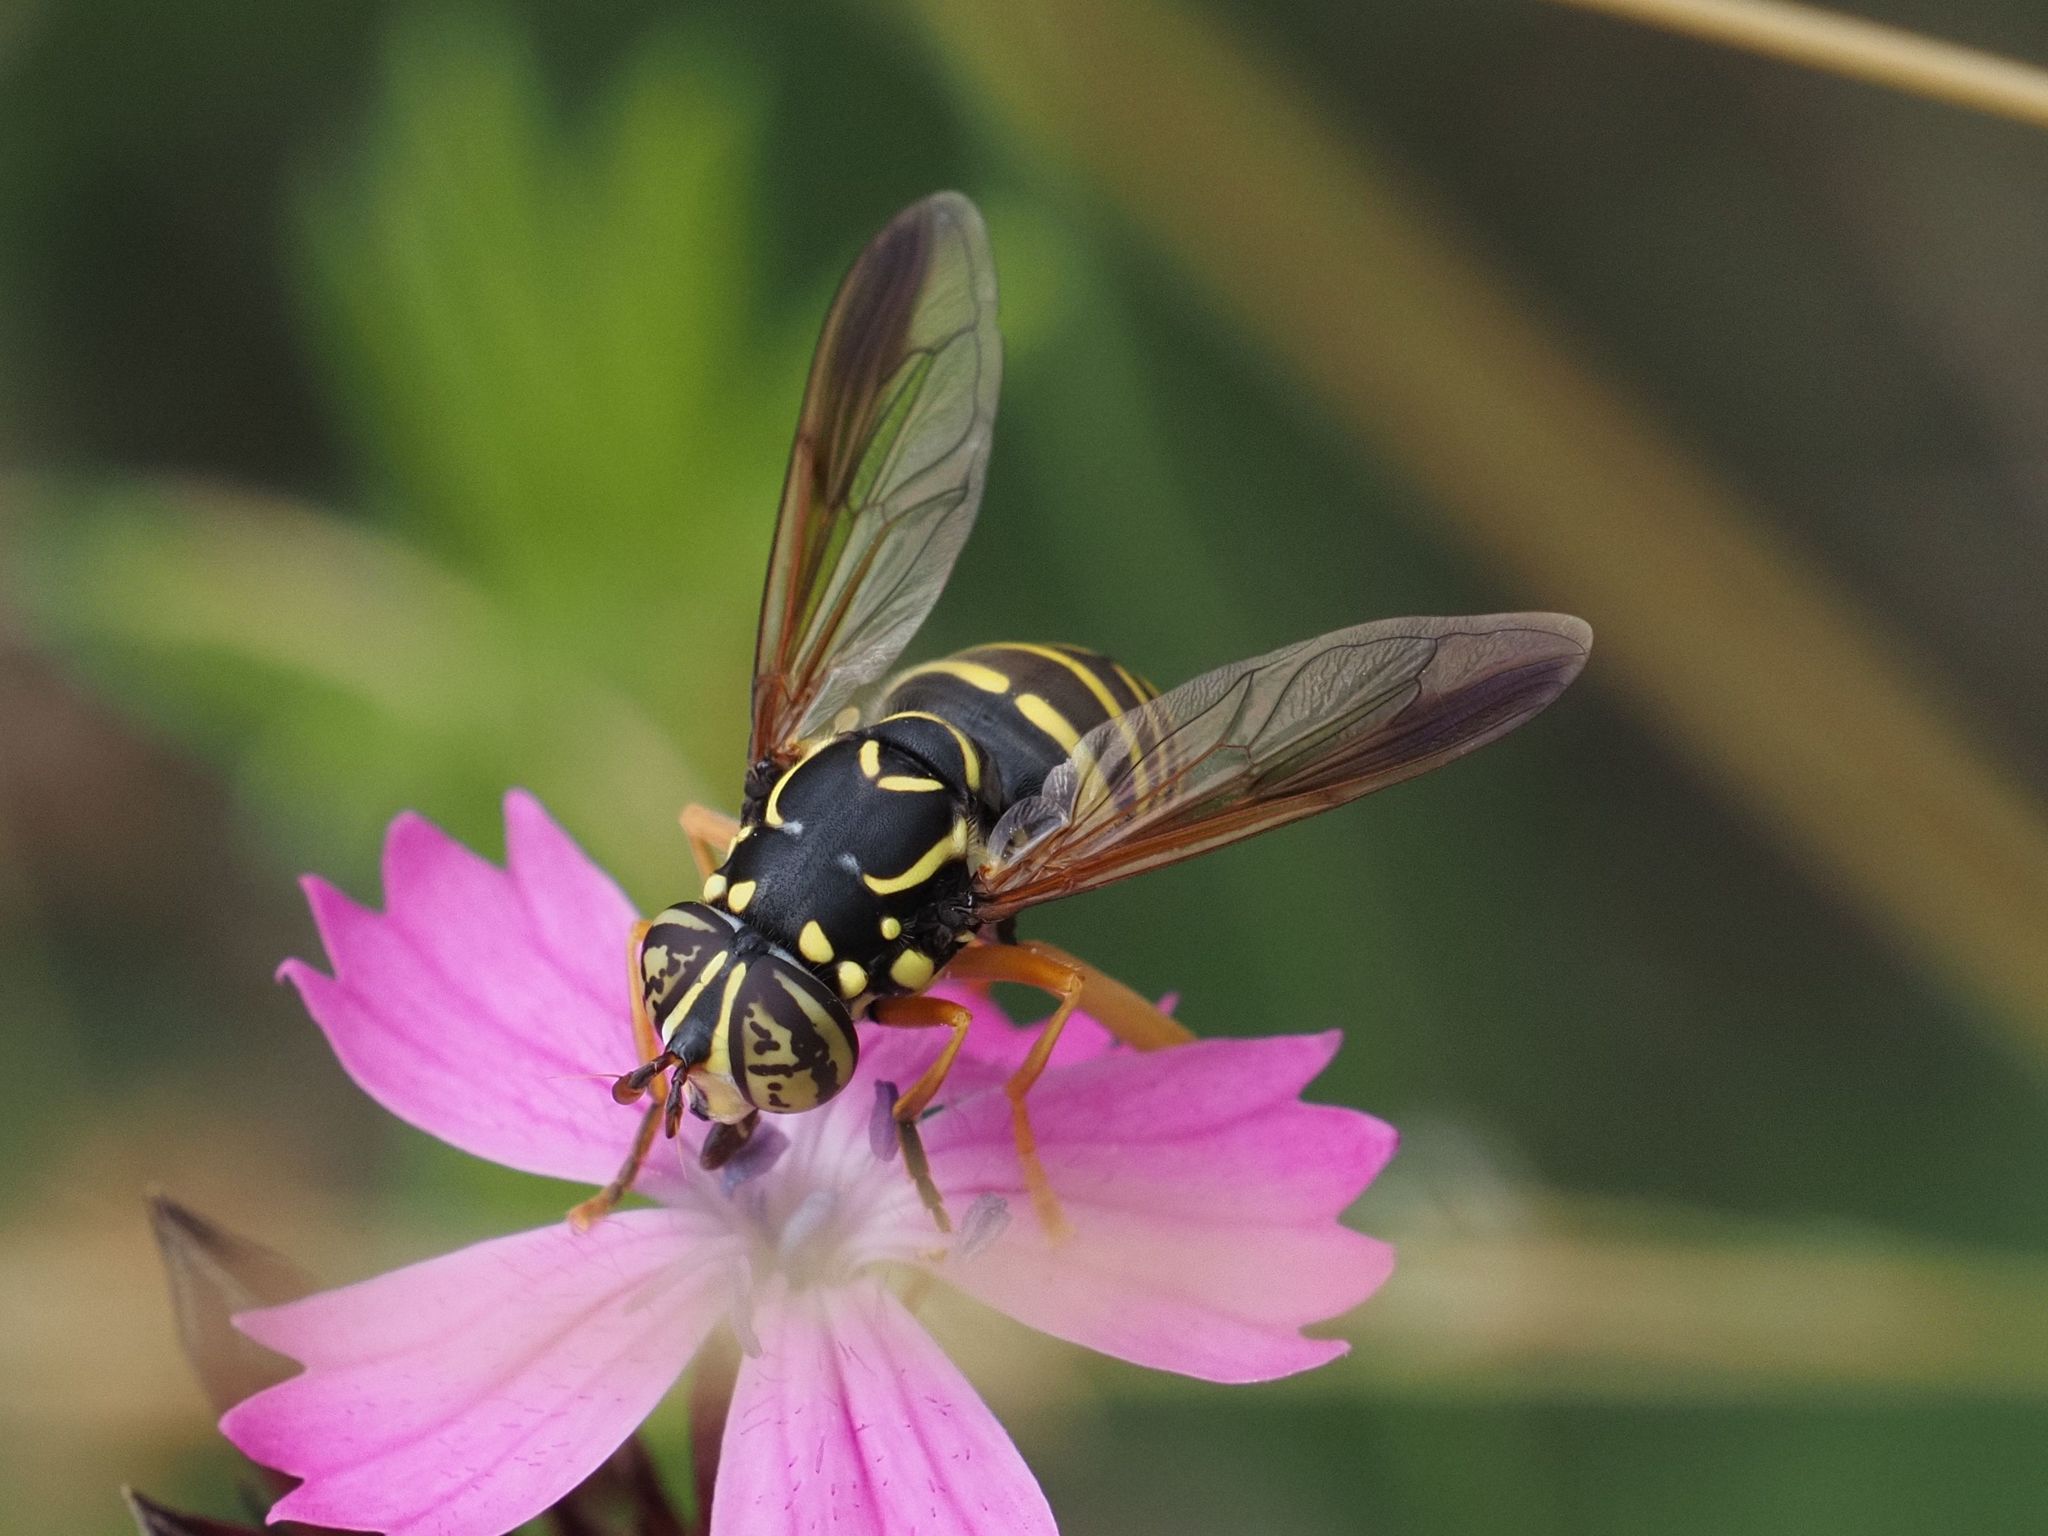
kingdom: Animalia
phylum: Arthropoda
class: Insecta
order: Diptera
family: Syrphidae
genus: Spilomyia
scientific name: Spilomyia saltuum
